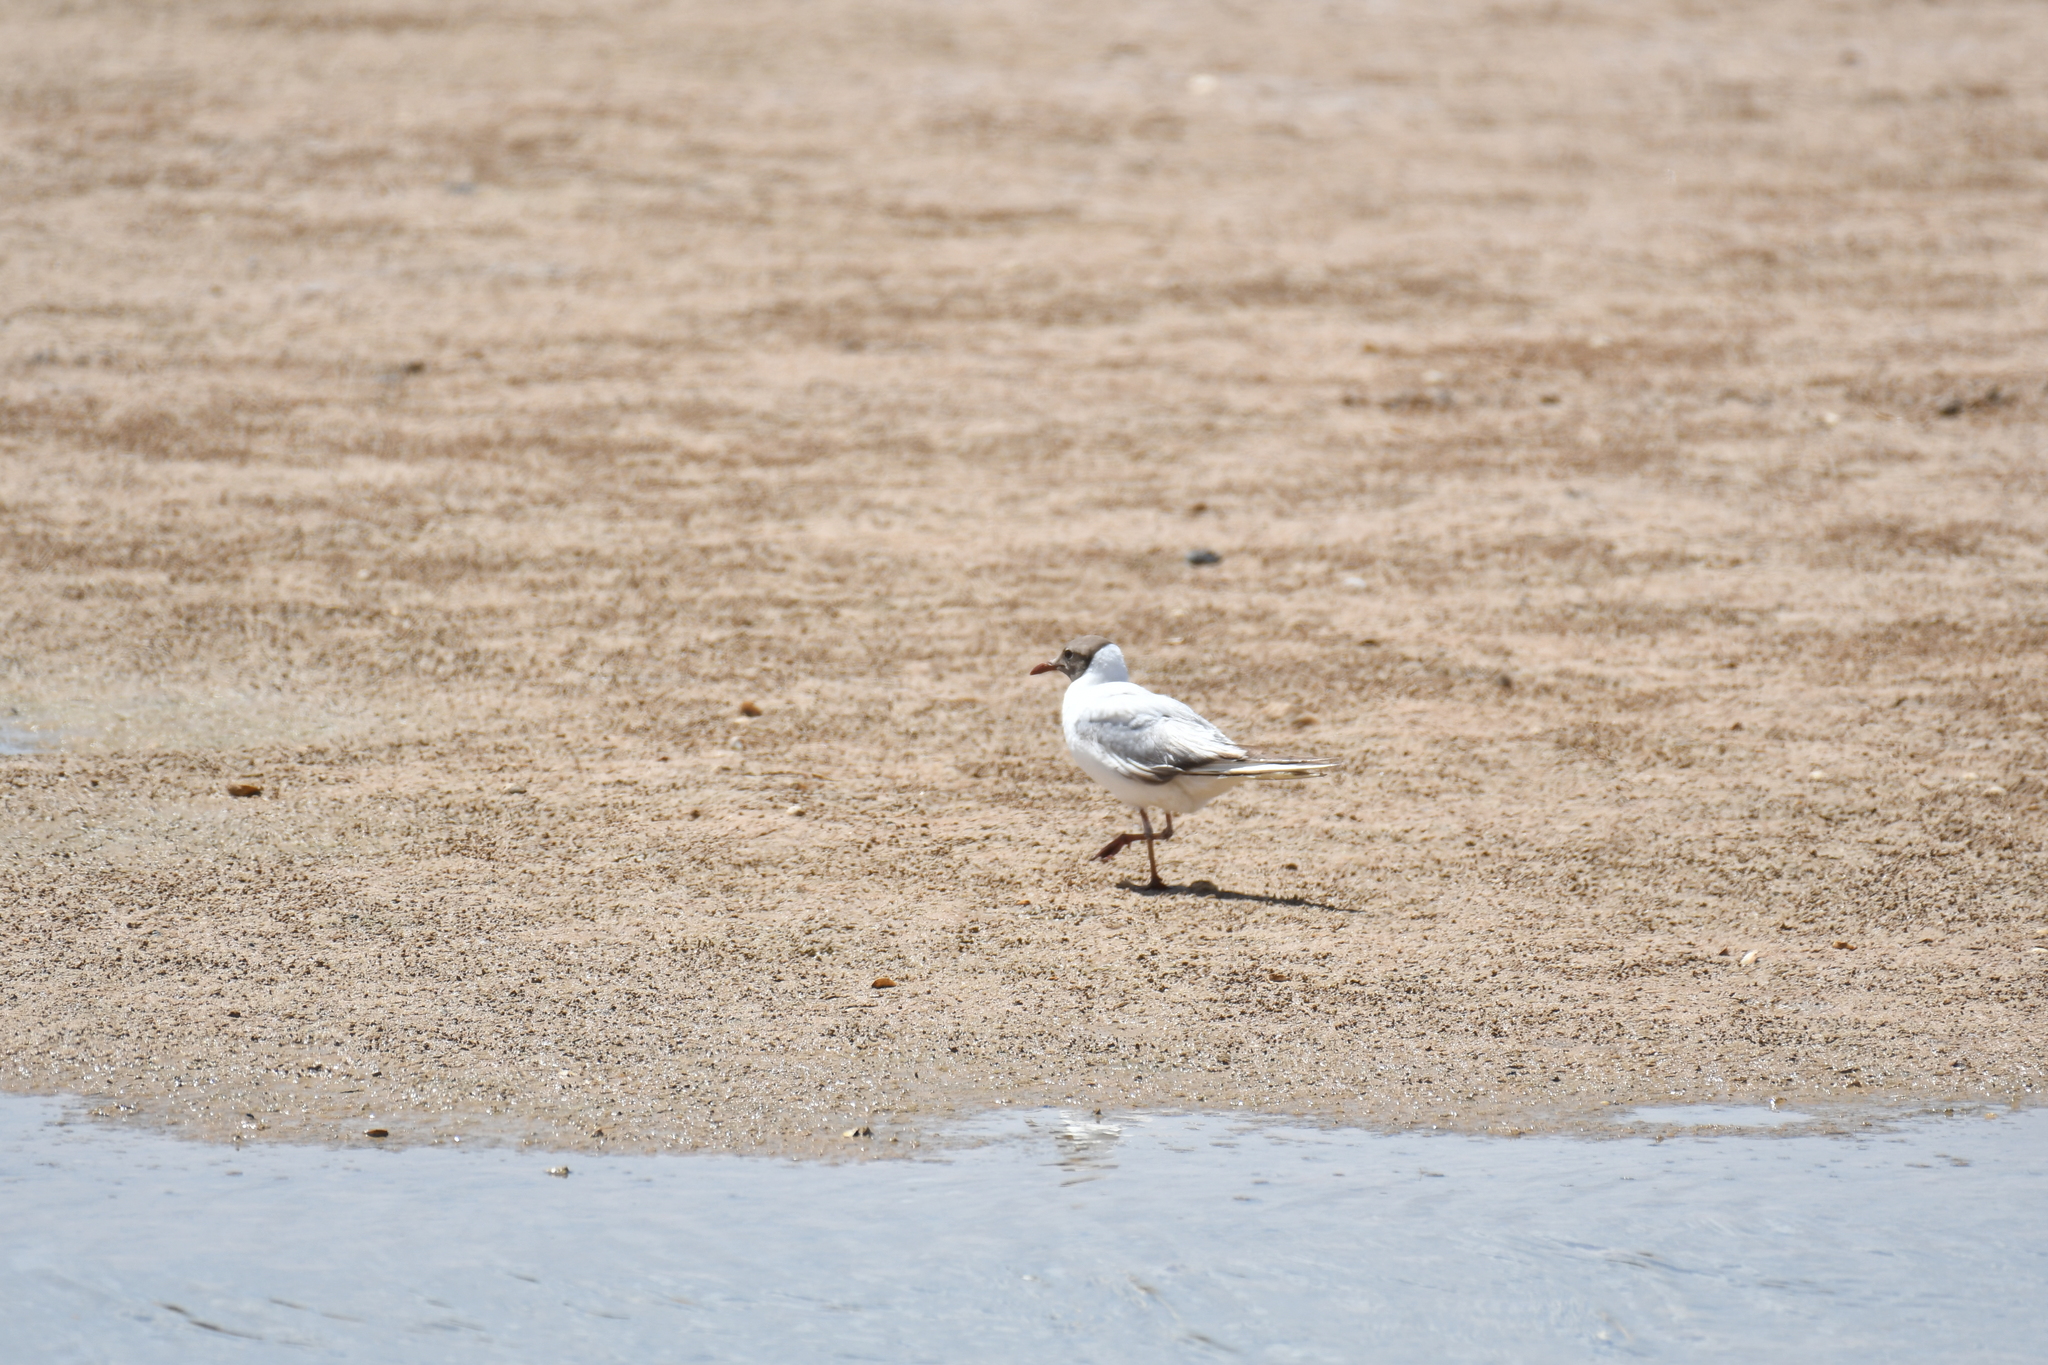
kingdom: Animalia
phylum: Chordata
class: Aves
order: Charadriiformes
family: Laridae
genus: Chroicocephalus
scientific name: Chroicocephalus ridibundus
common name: Black-headed gull
